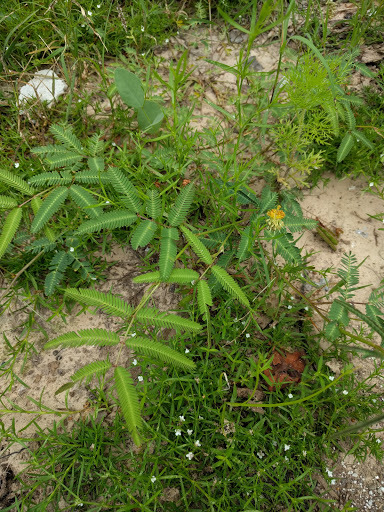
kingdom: Plantae
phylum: Tracheophyta
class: Magnoliopsida
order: Fabales
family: Fabaceae
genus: Neptunia
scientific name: Neptunia pubescens
